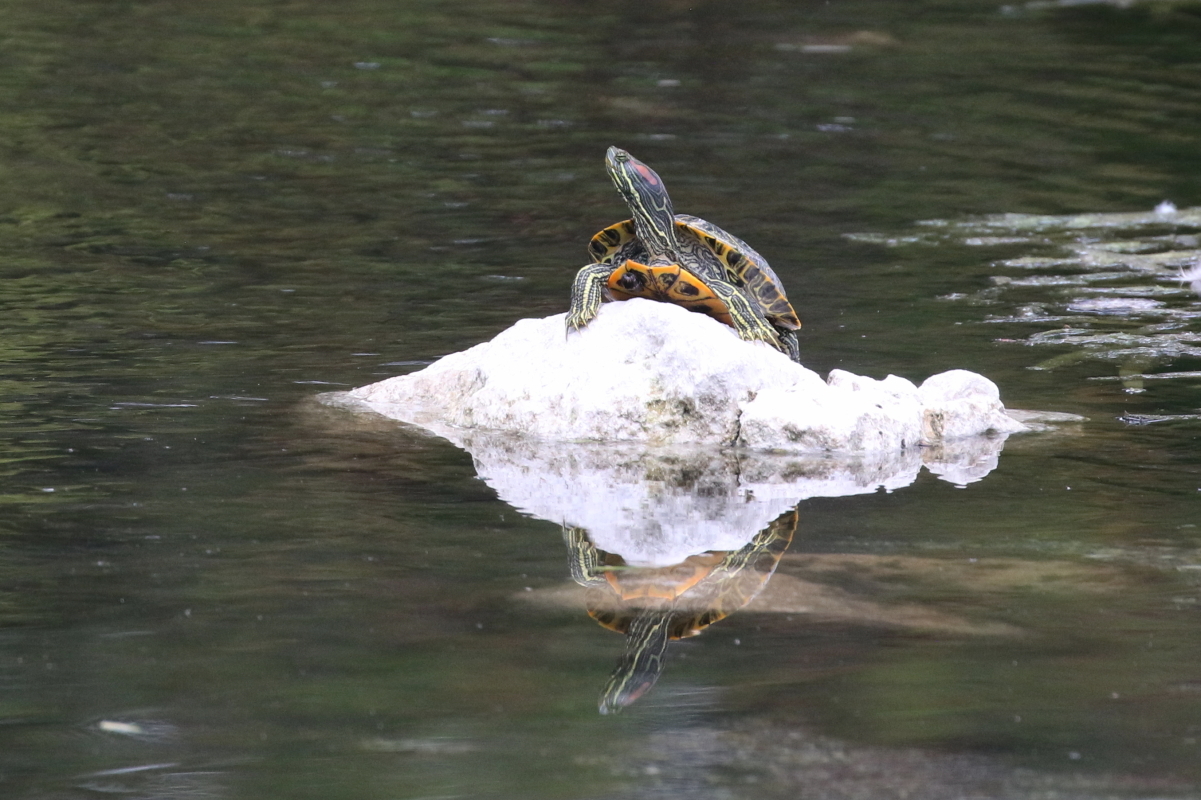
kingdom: Animalia
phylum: Chordata
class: Testudines
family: Emydidae
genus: Trachemys
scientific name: Trachemys scripta
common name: Slider
